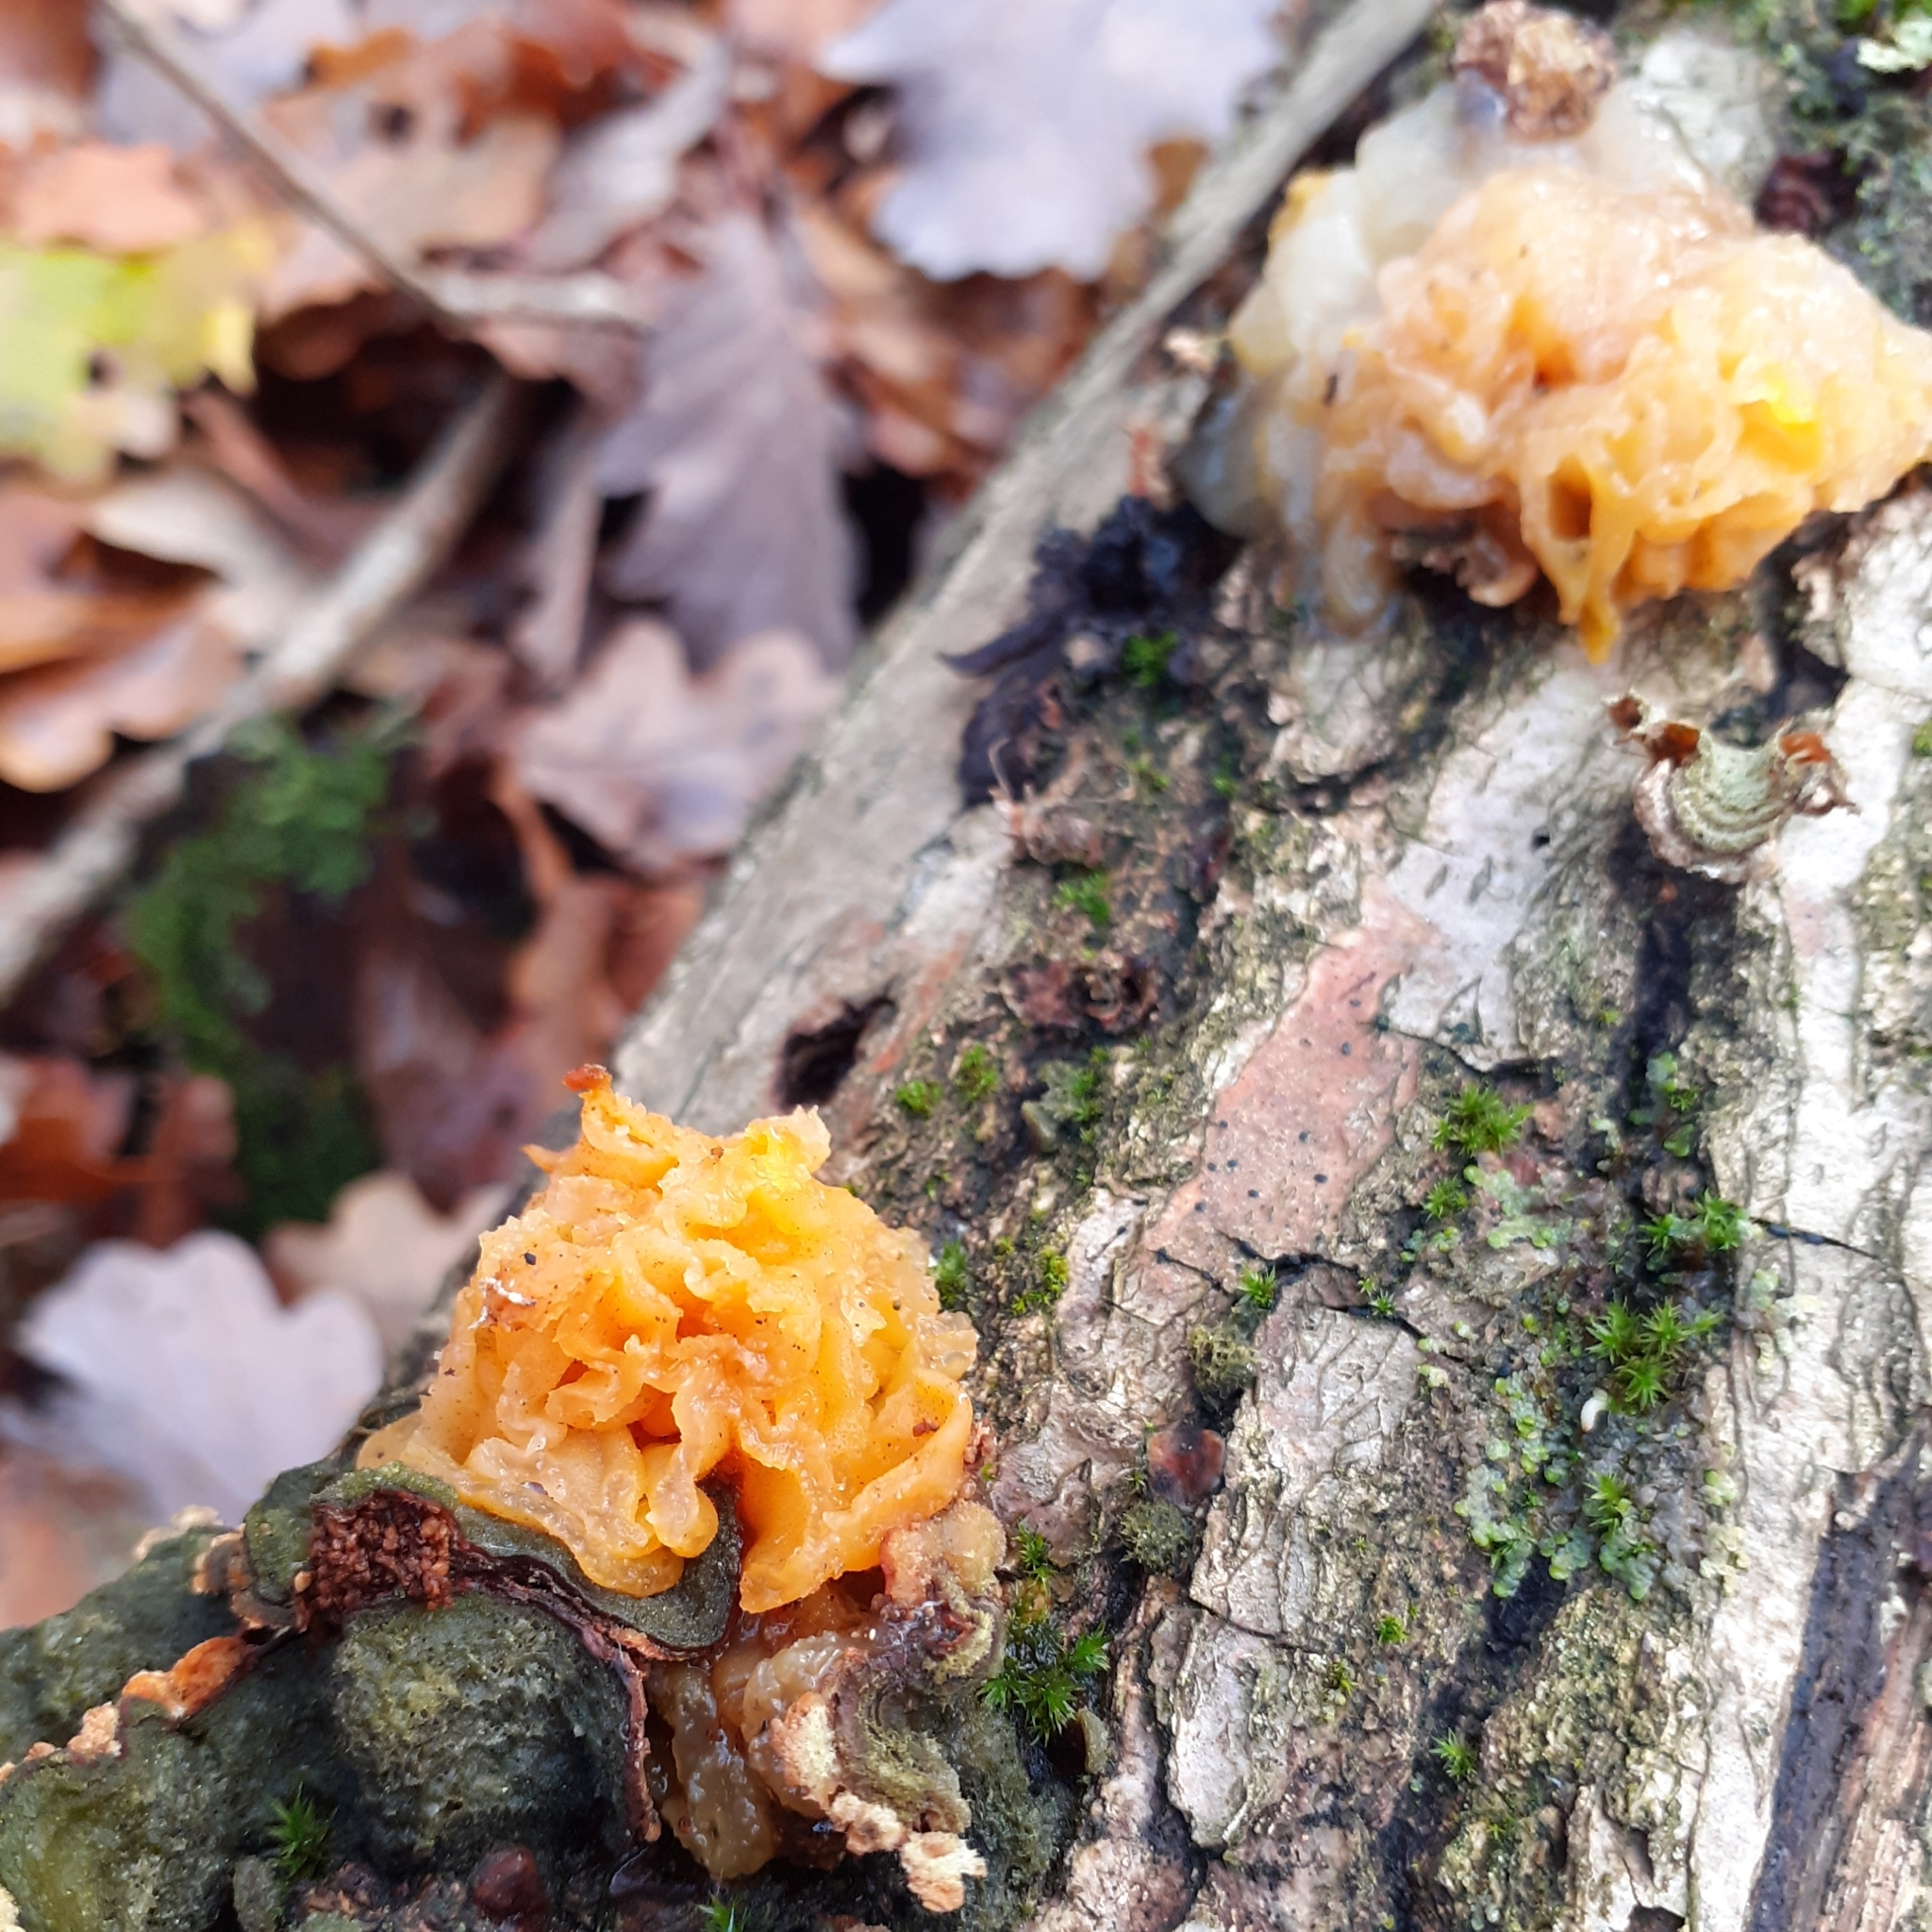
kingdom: Fungi
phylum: Basidiomycota
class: Tremellomycetes
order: Tremellales
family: Naemateliaceae
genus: Naematelia
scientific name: Naematelia aurantia
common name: Golden ear
